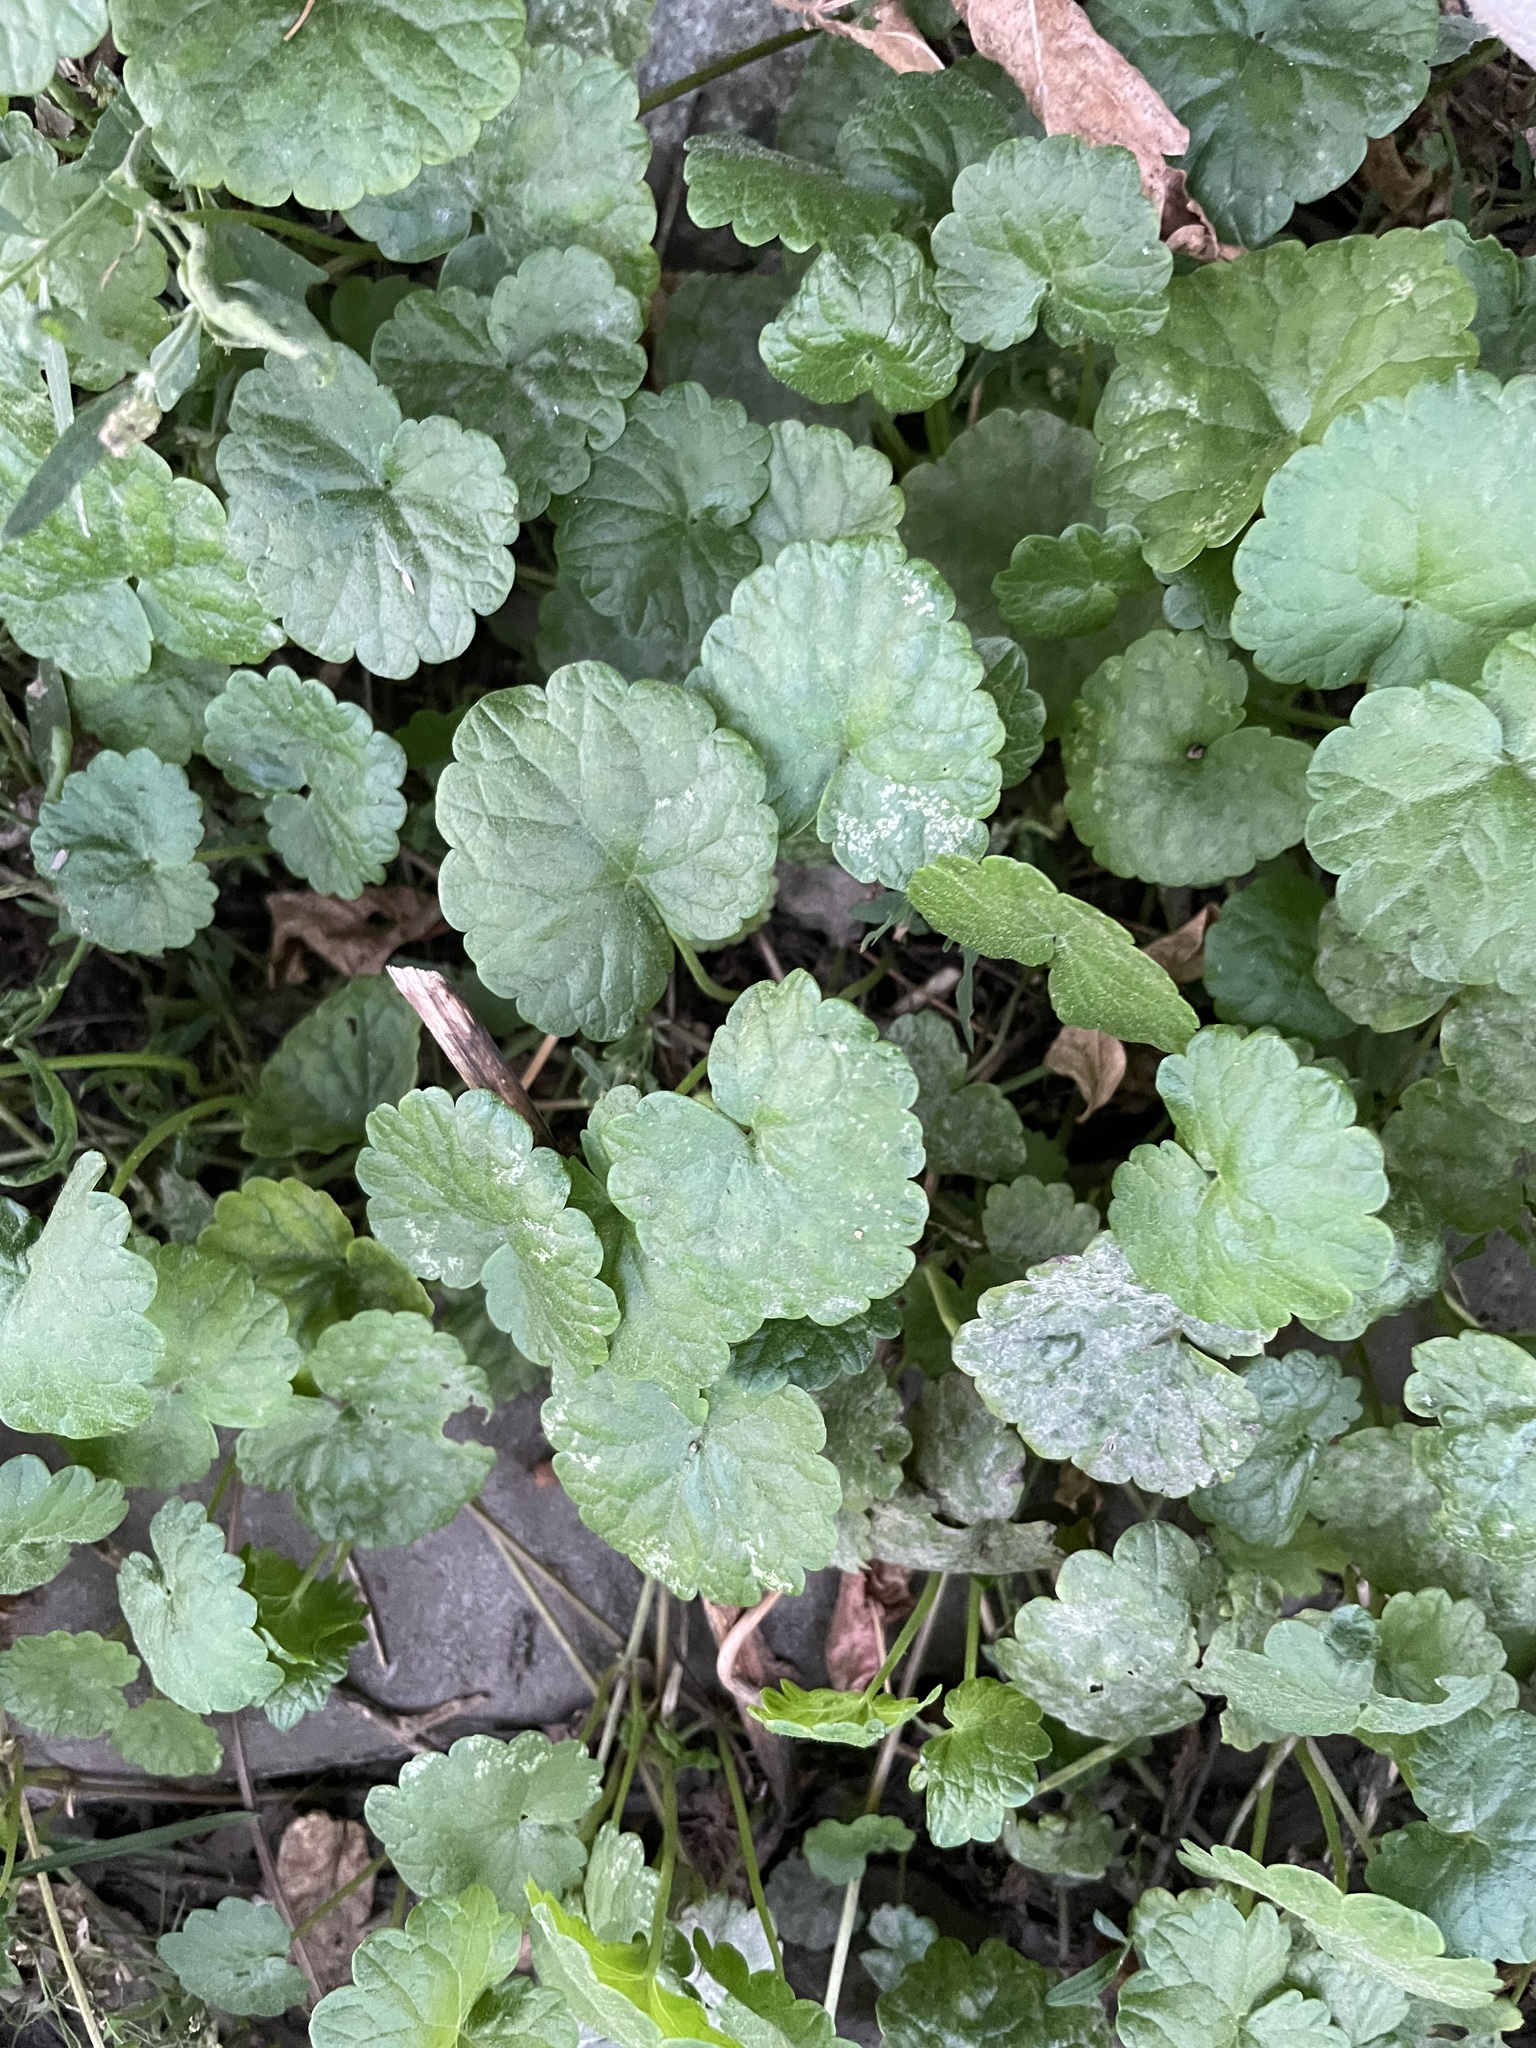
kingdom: Plantae
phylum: Tracheophyta
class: Magnoliopsida
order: Lamiales
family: Lamiaceae
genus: Glechoma
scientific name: Glechoma hederacea
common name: Ground ivy
